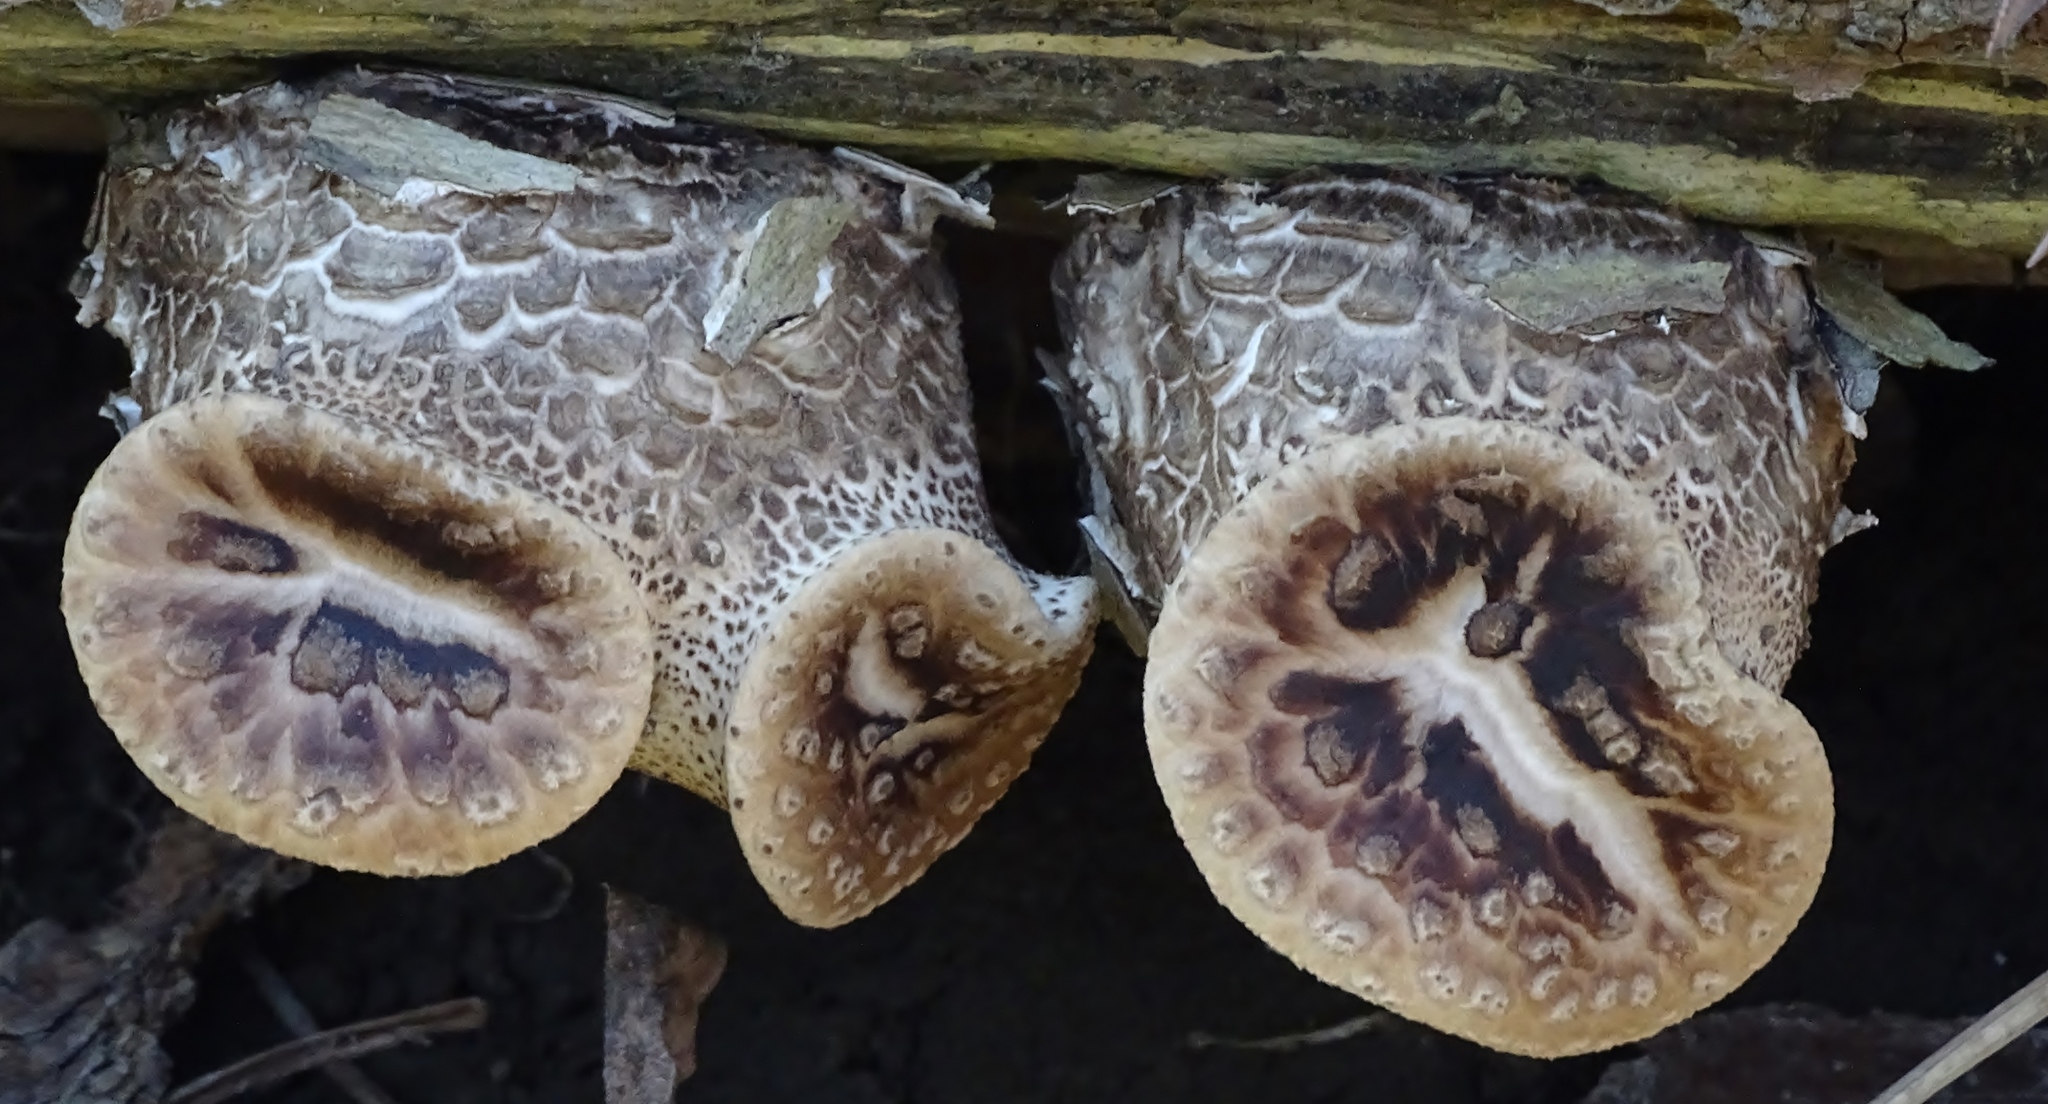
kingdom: Fungi
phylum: Basidiomycota
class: Agaricomycetes
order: Polyporales
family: Polyporaceae
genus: Cerioporus
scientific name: Cerioporus squamosus
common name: Dryad's saddle
